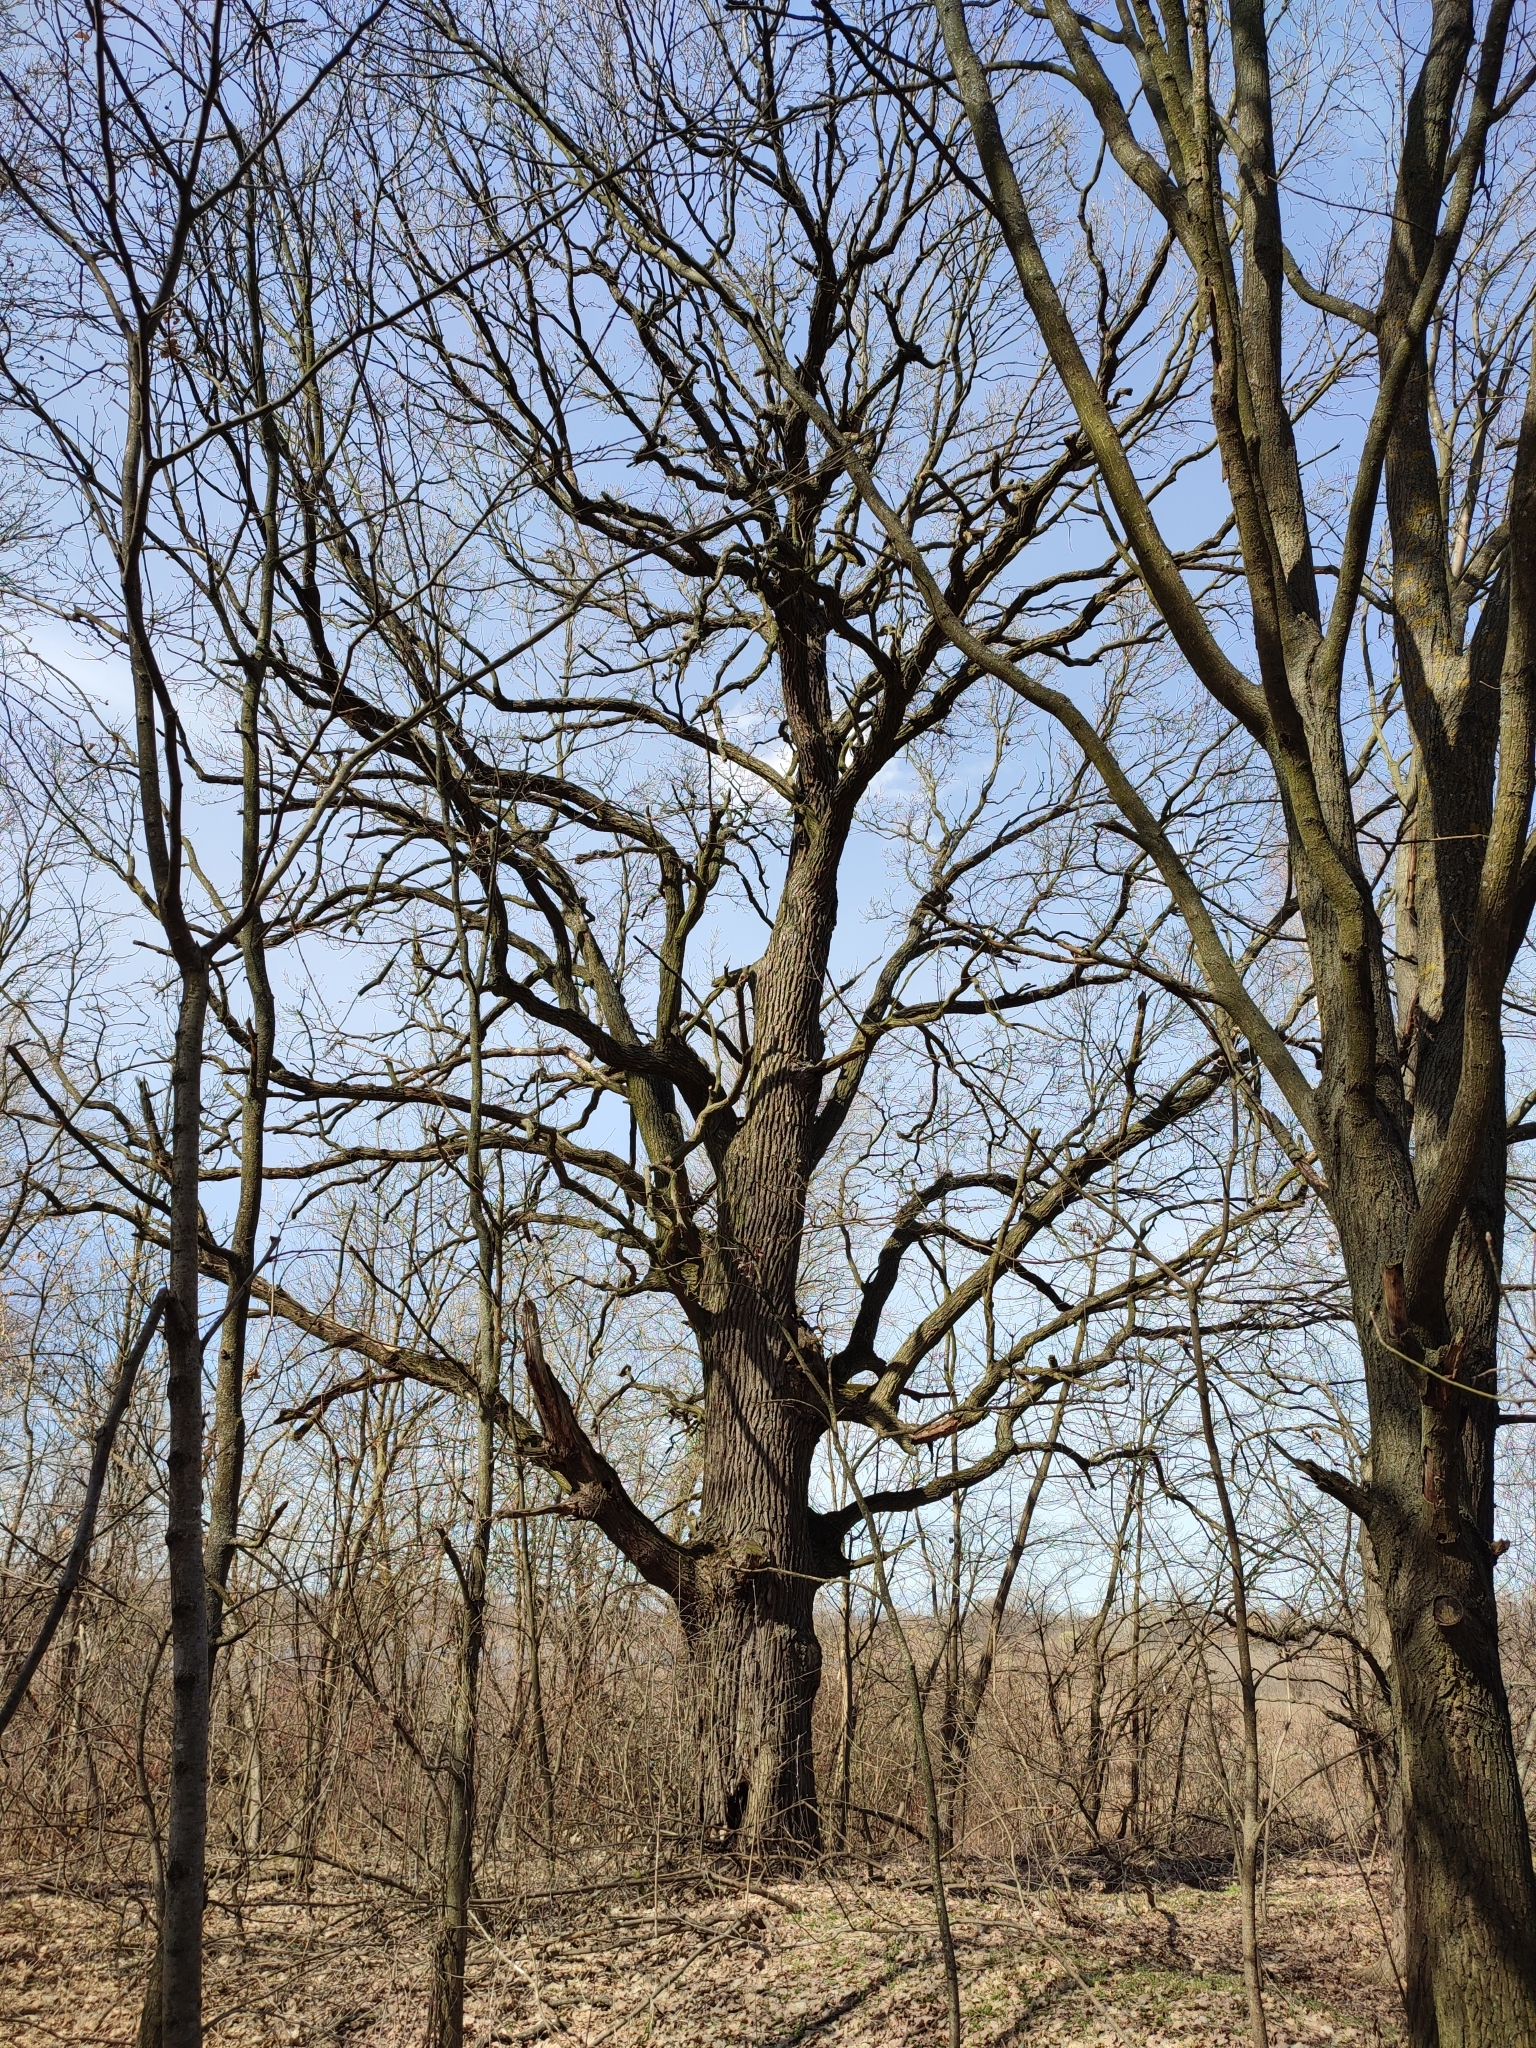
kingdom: Plantae
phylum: Tracheophyta
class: Magnoliopsida
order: Fagales
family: Fagaceae
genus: Quercus
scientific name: Quercus robur
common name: Pedunculate oak
